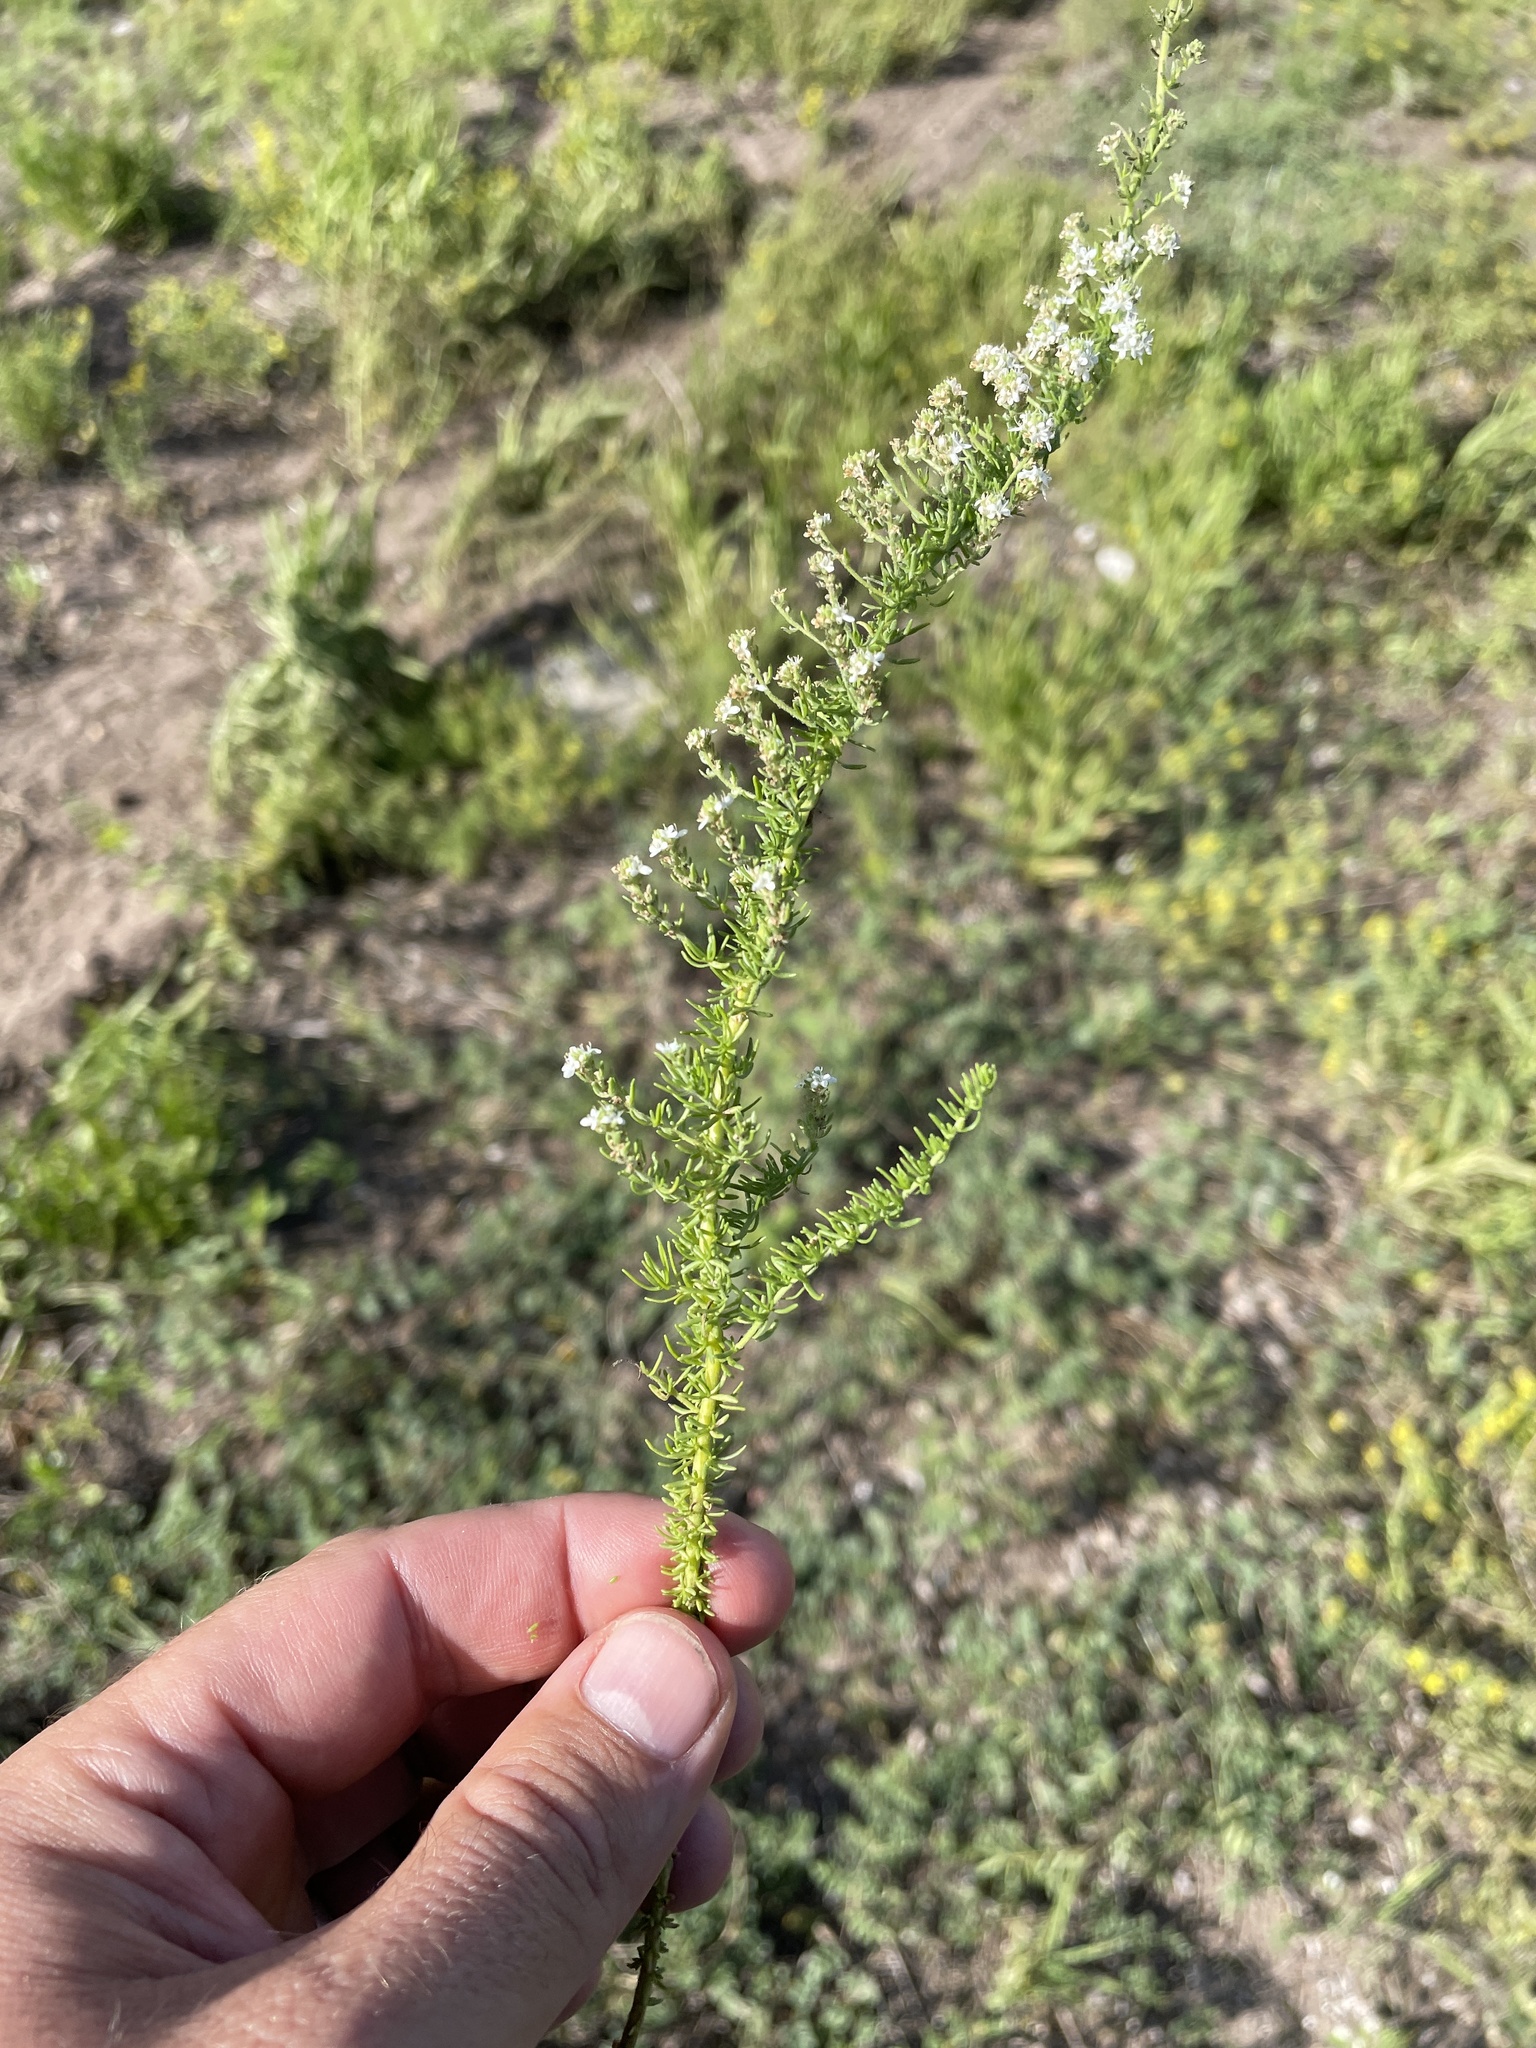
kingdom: Plantae
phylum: Tracheophyta
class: Magnoliopsida
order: Lamiales
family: Scrophulariaceae
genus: Selago
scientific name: Selago densiflora
